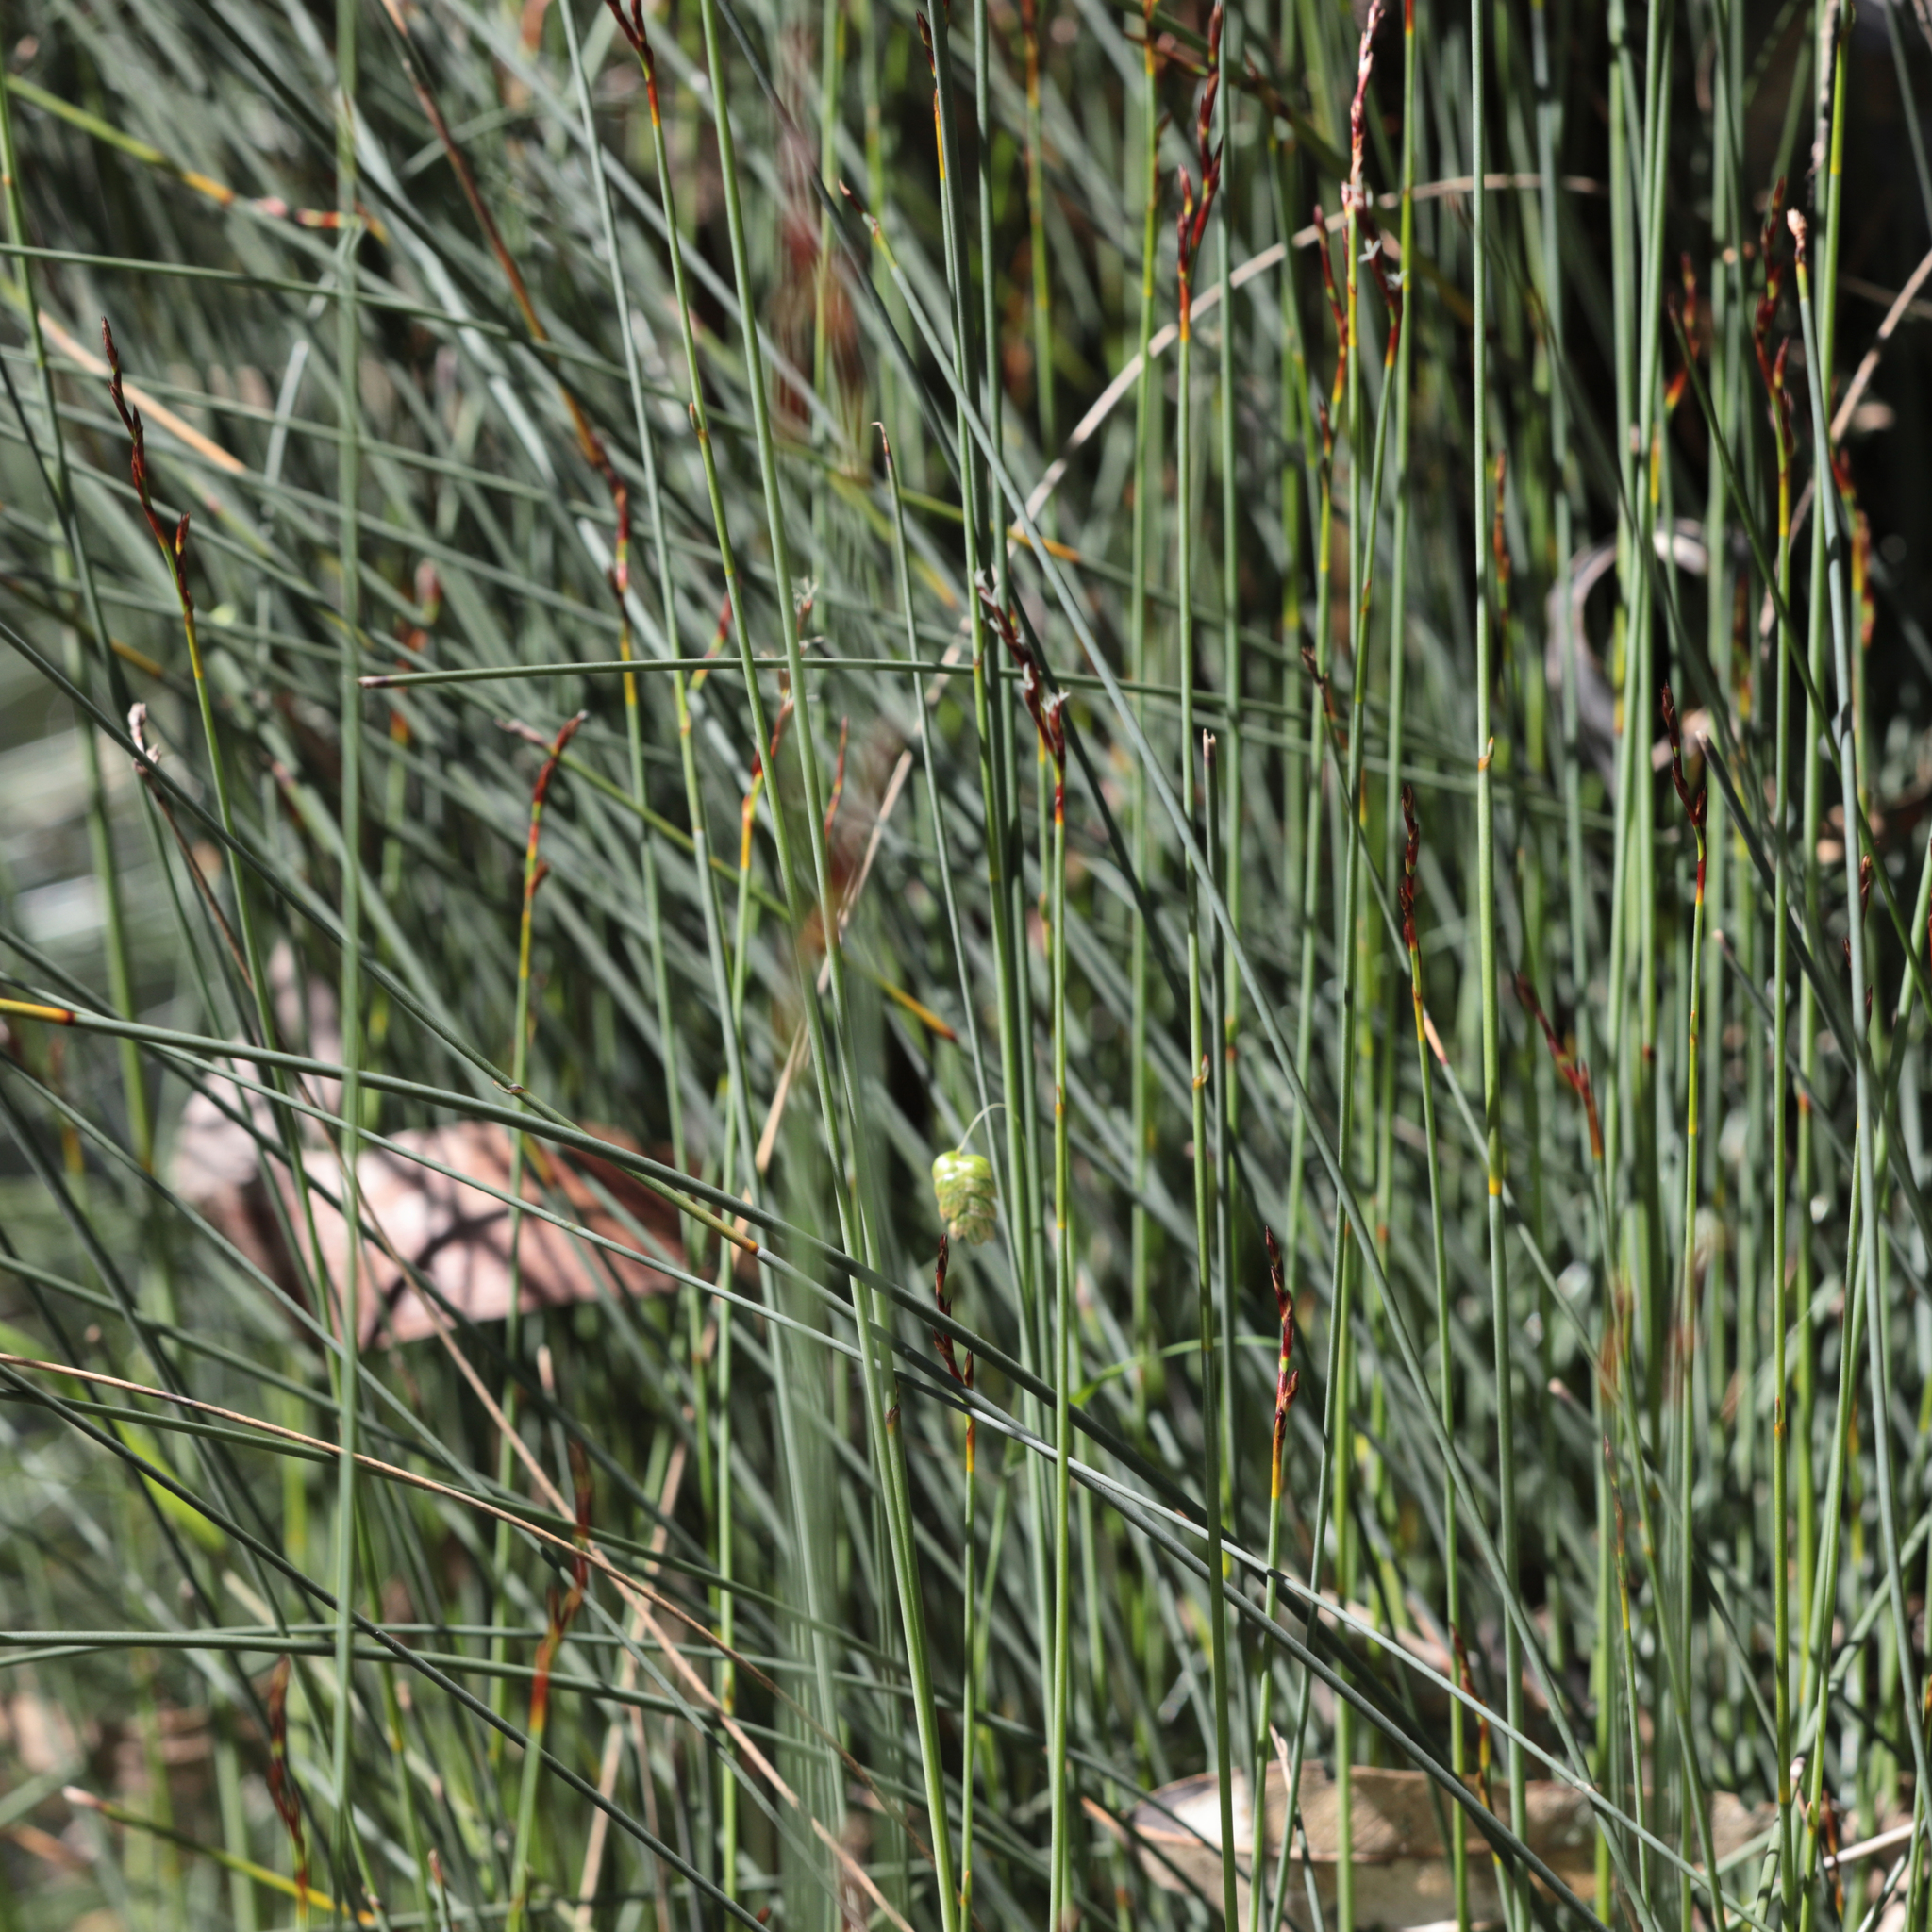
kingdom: Plantae
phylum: Tracheophyta
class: Liliopsida
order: Poales
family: Cyperaceae
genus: Machaerina
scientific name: Machaerina juncea
